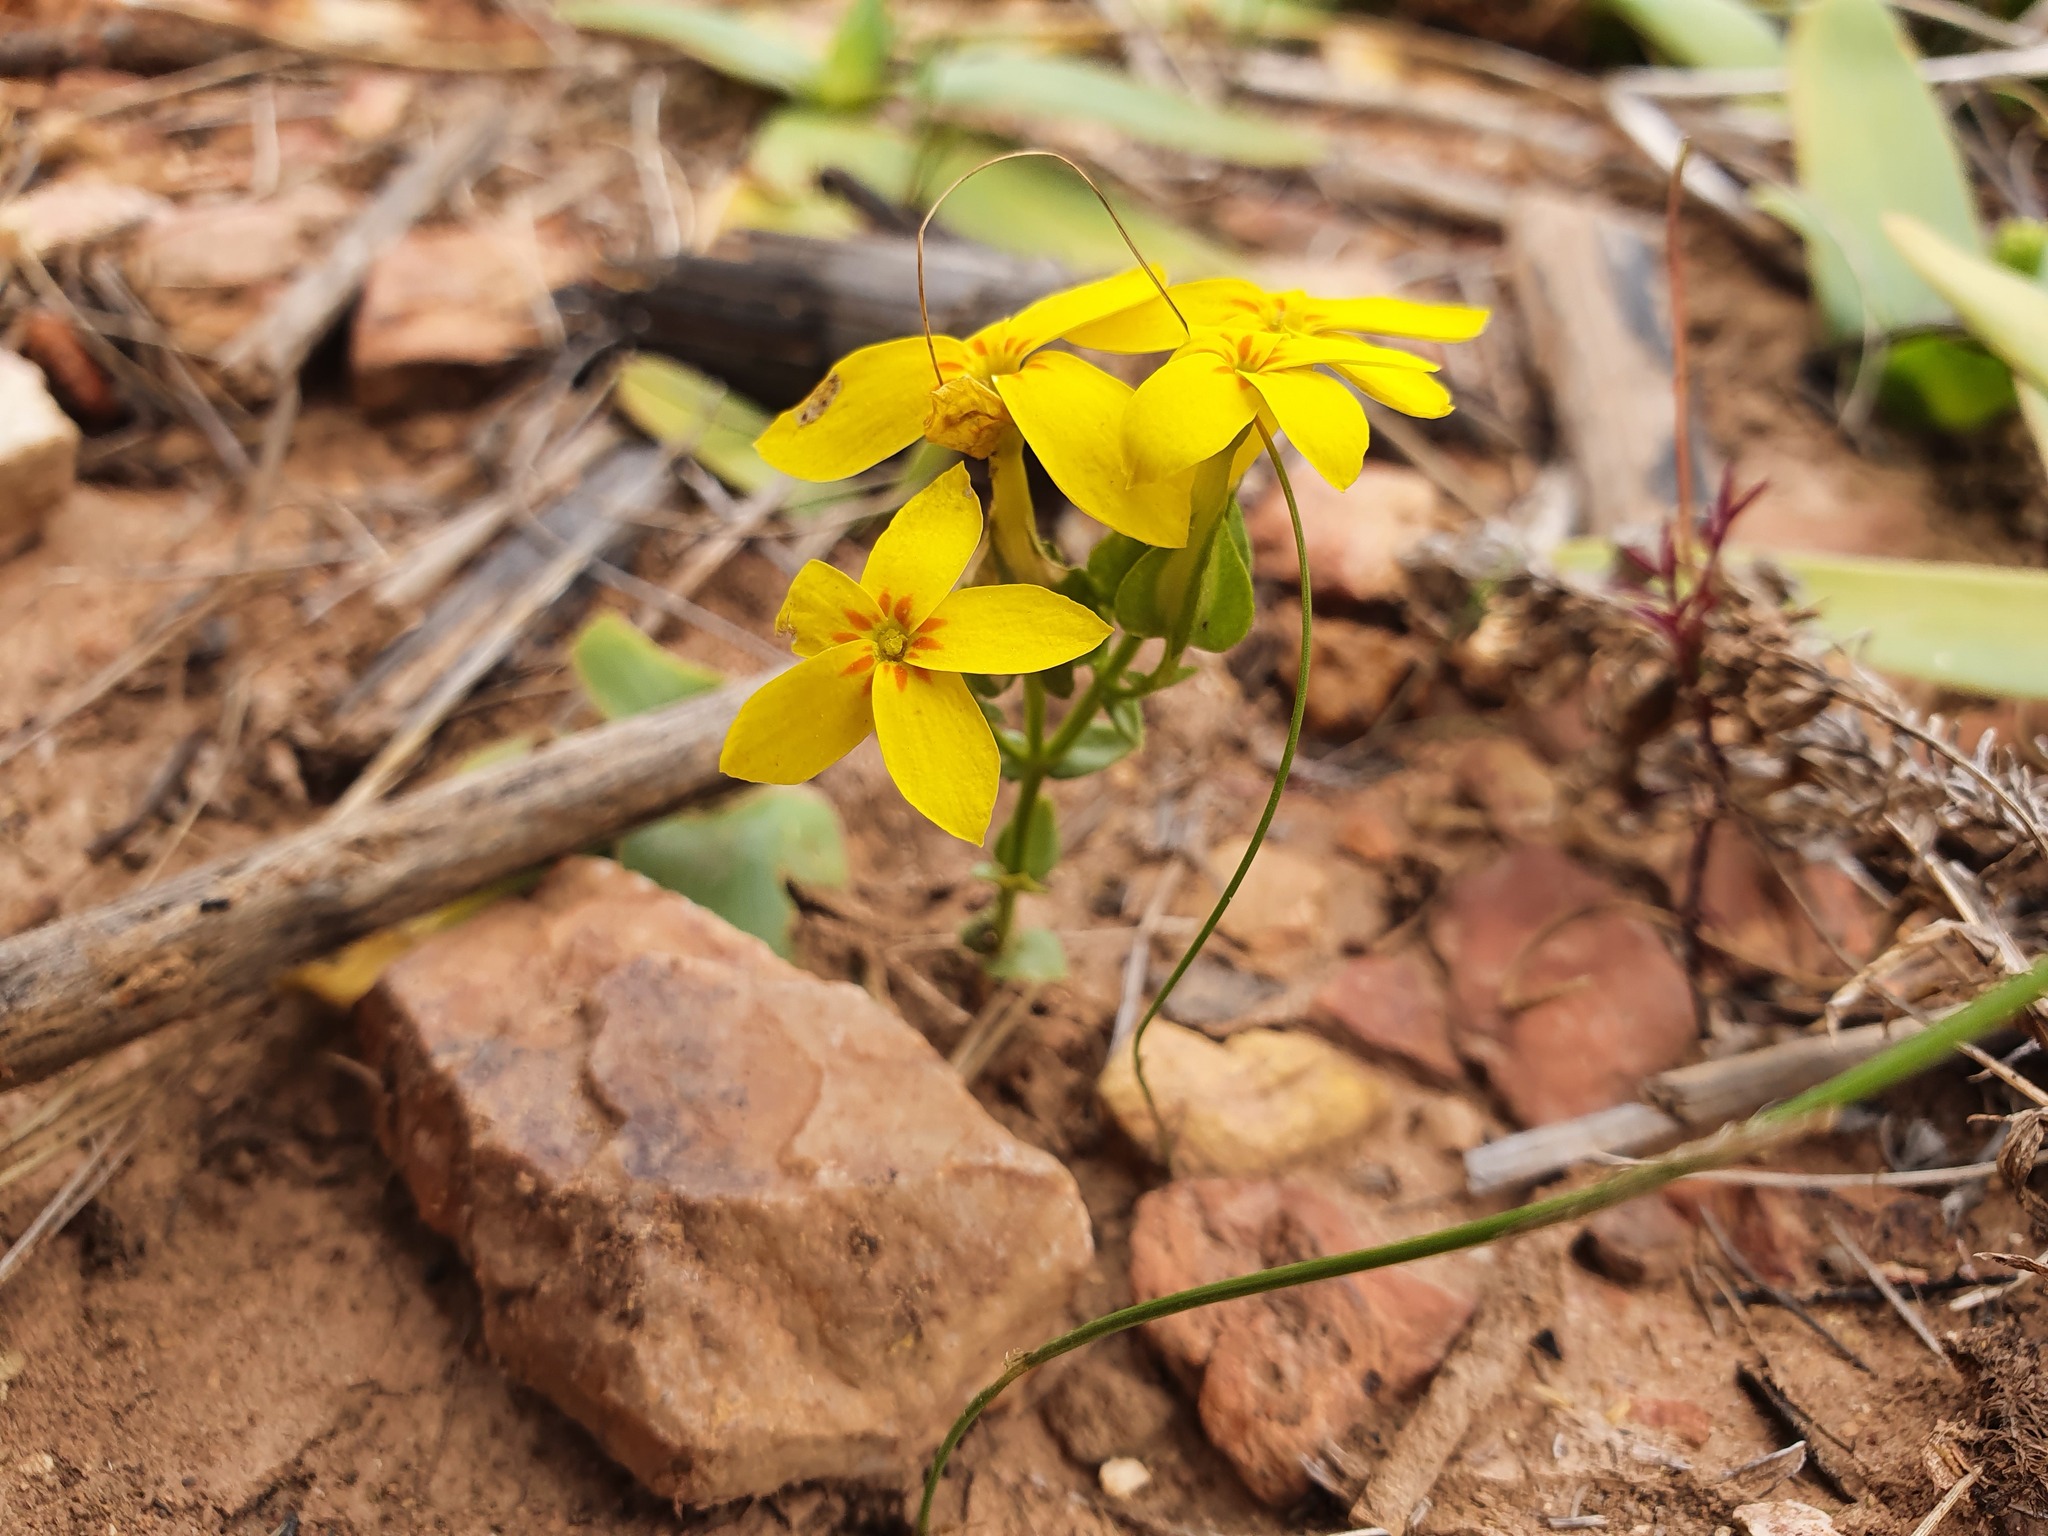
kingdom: Plantae
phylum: Tracheophyta
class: Magnoliopsida
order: Gentianales
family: Gentianaceae
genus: Sebaea
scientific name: Sebaea exacoides
